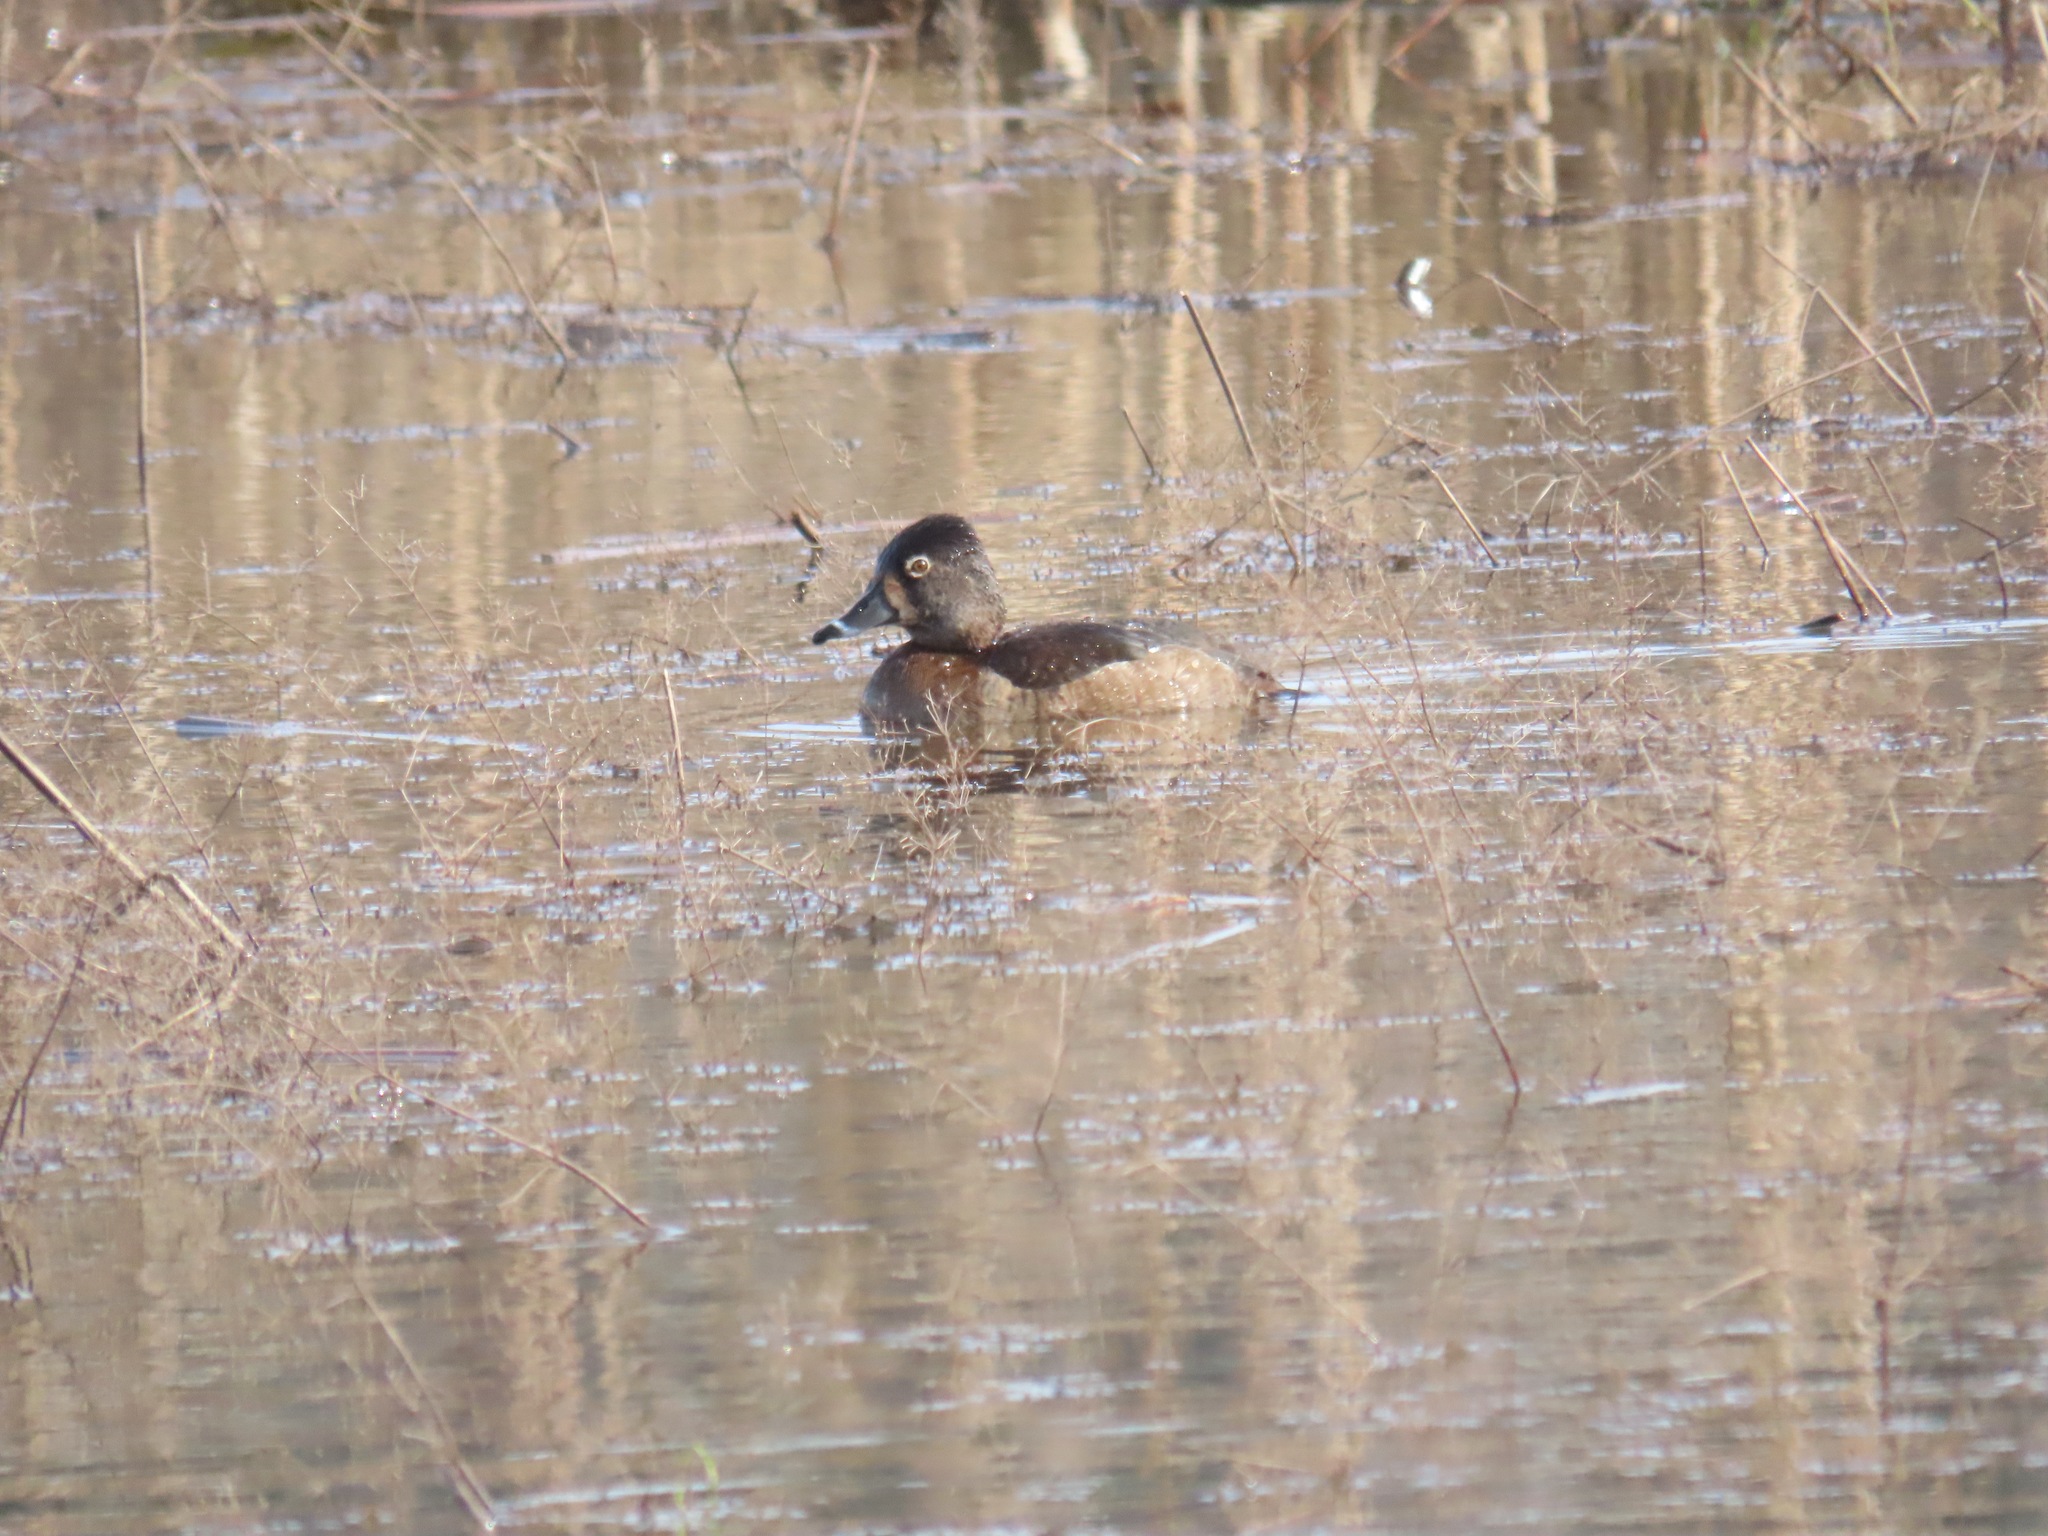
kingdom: Animalia
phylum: Chordata
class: Aves
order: Anseriformes
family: Anatidae
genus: Aythya
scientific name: Aythya collaris
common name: Ring-necked duck
